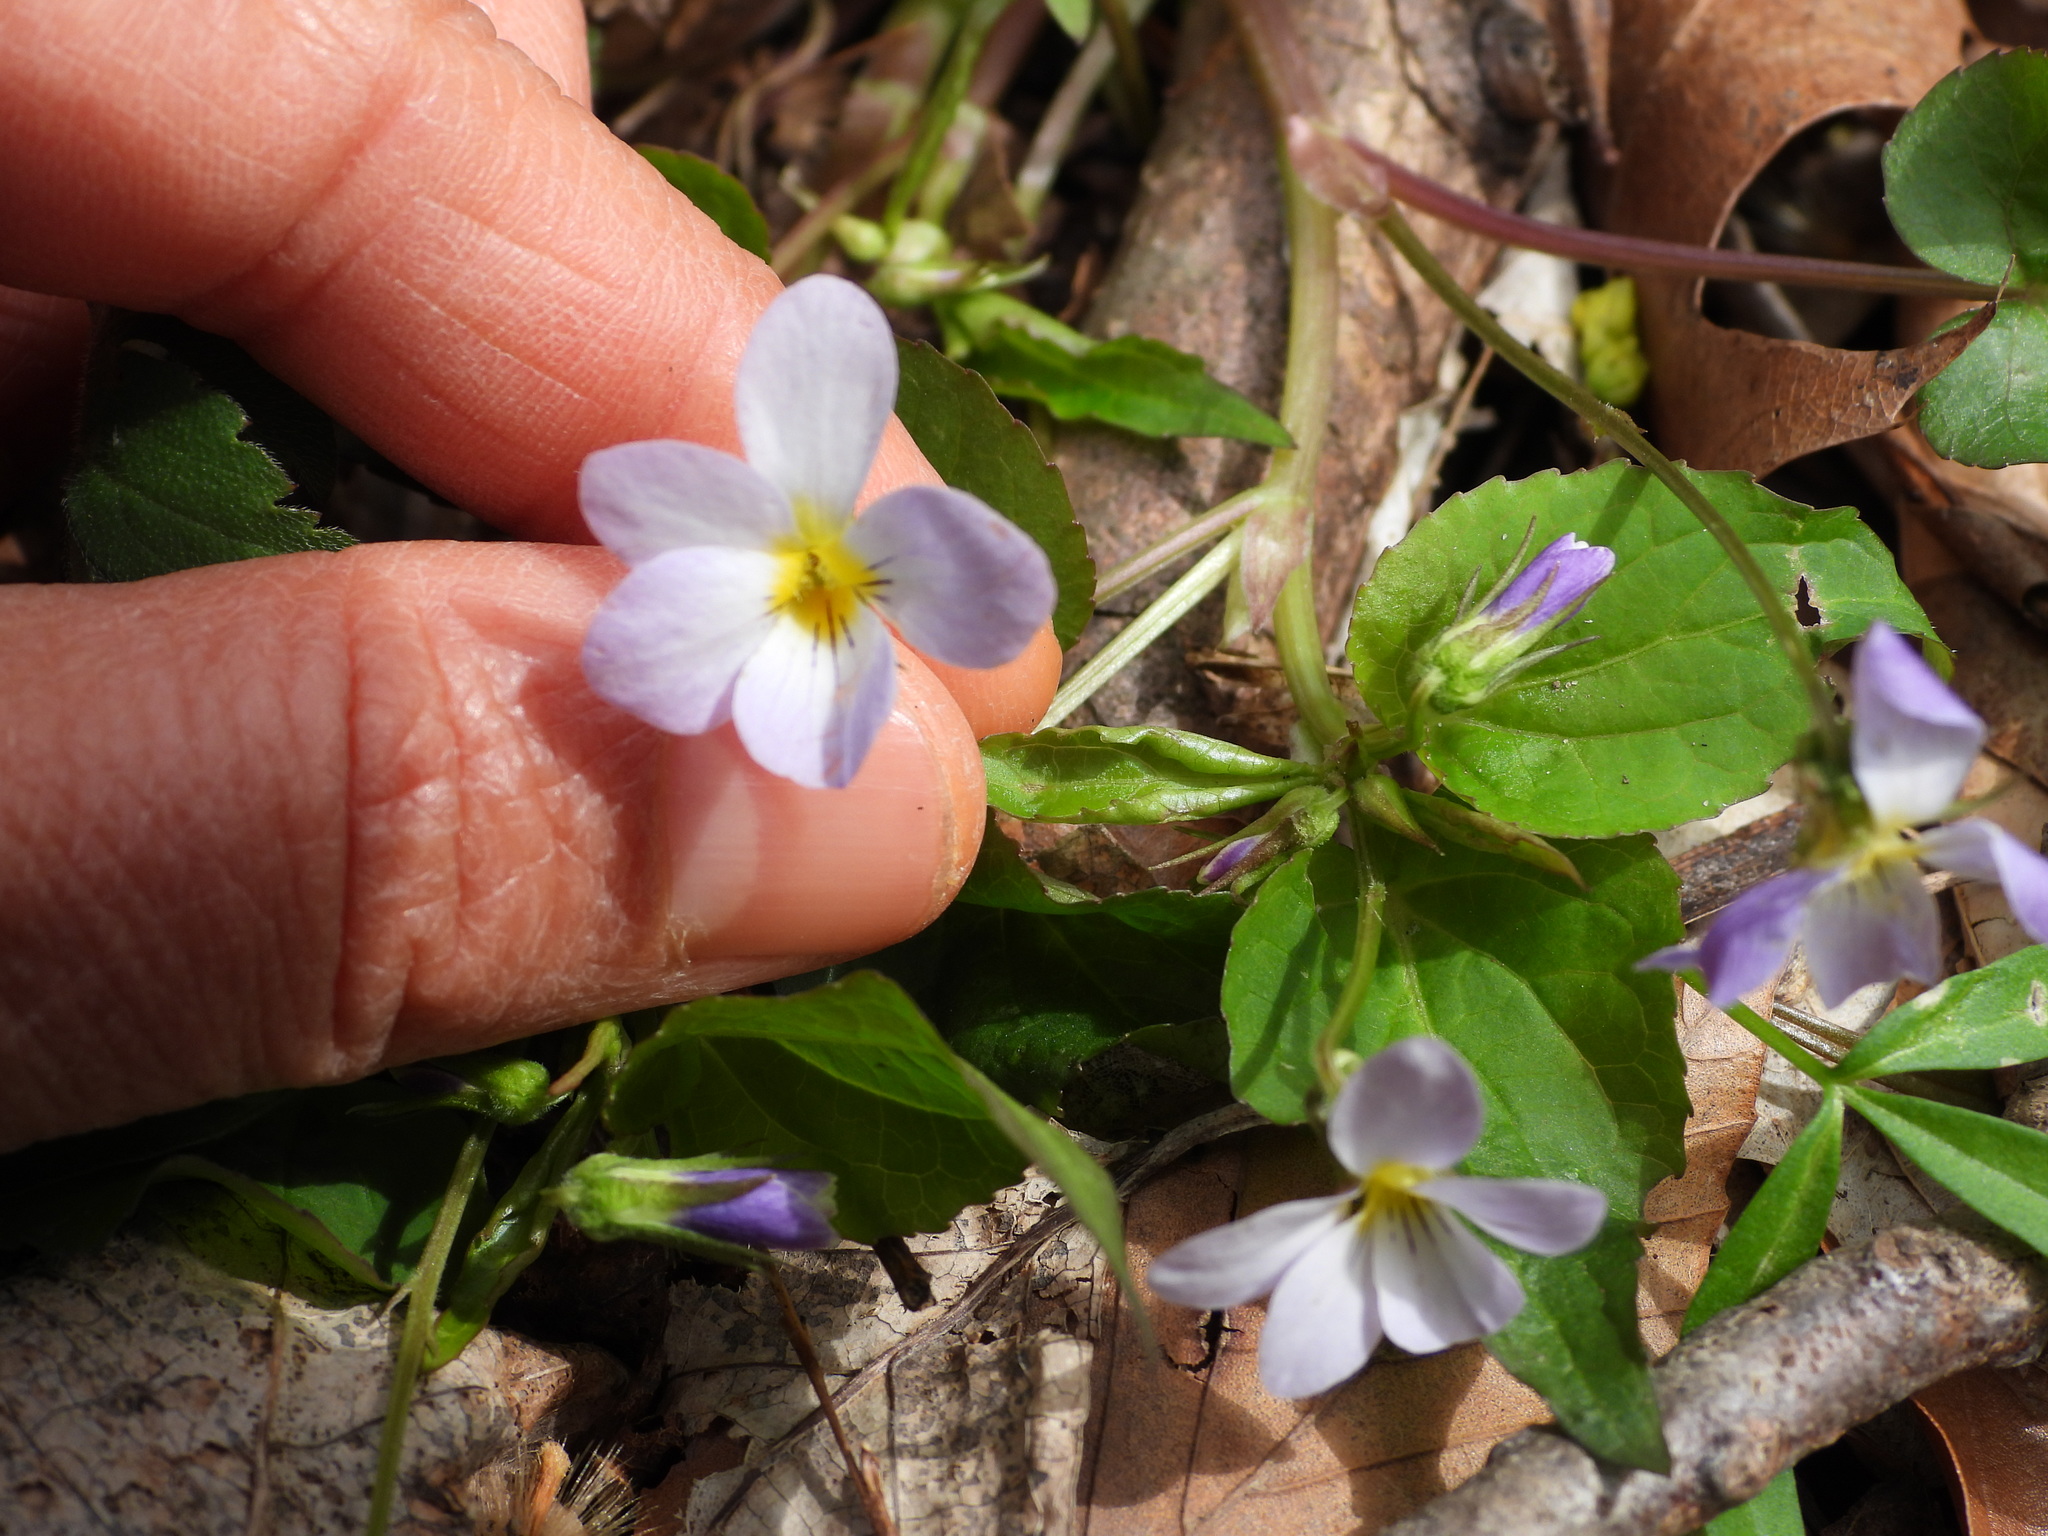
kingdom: Plantae
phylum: Tracheophyta
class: Magnoliopsida
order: Malpighiales
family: Violaceae
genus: Viola
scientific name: Viola canadensis
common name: Canada violet
